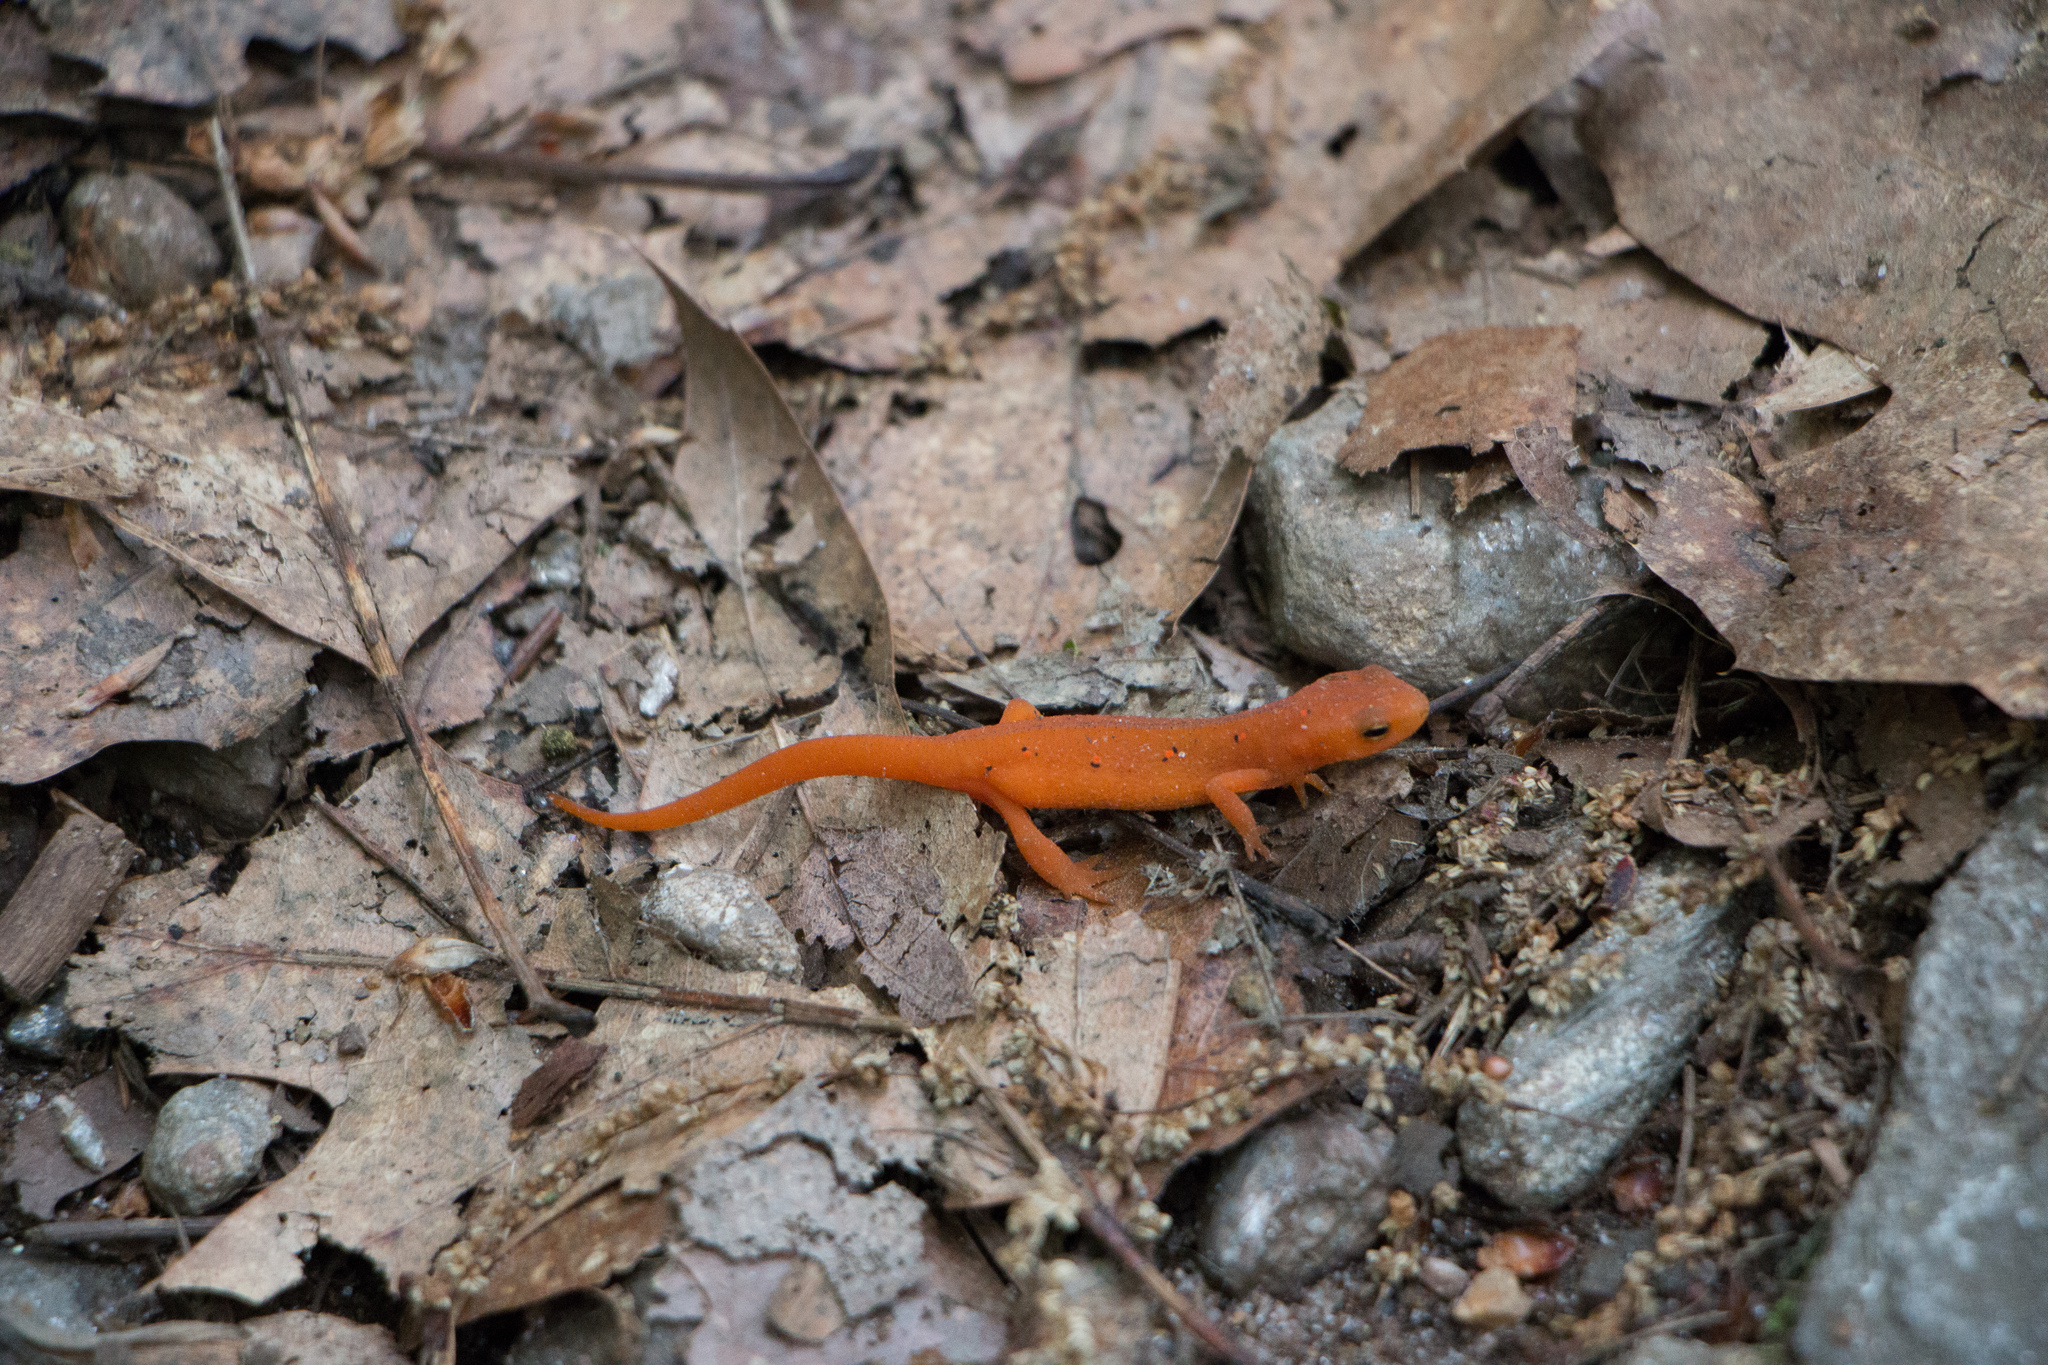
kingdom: Animalia
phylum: Chordata
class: Amphibia
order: Caudata
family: Salamandridae
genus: Notophthalmus
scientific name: Notophthalmus viridescens
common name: Eastern newt
